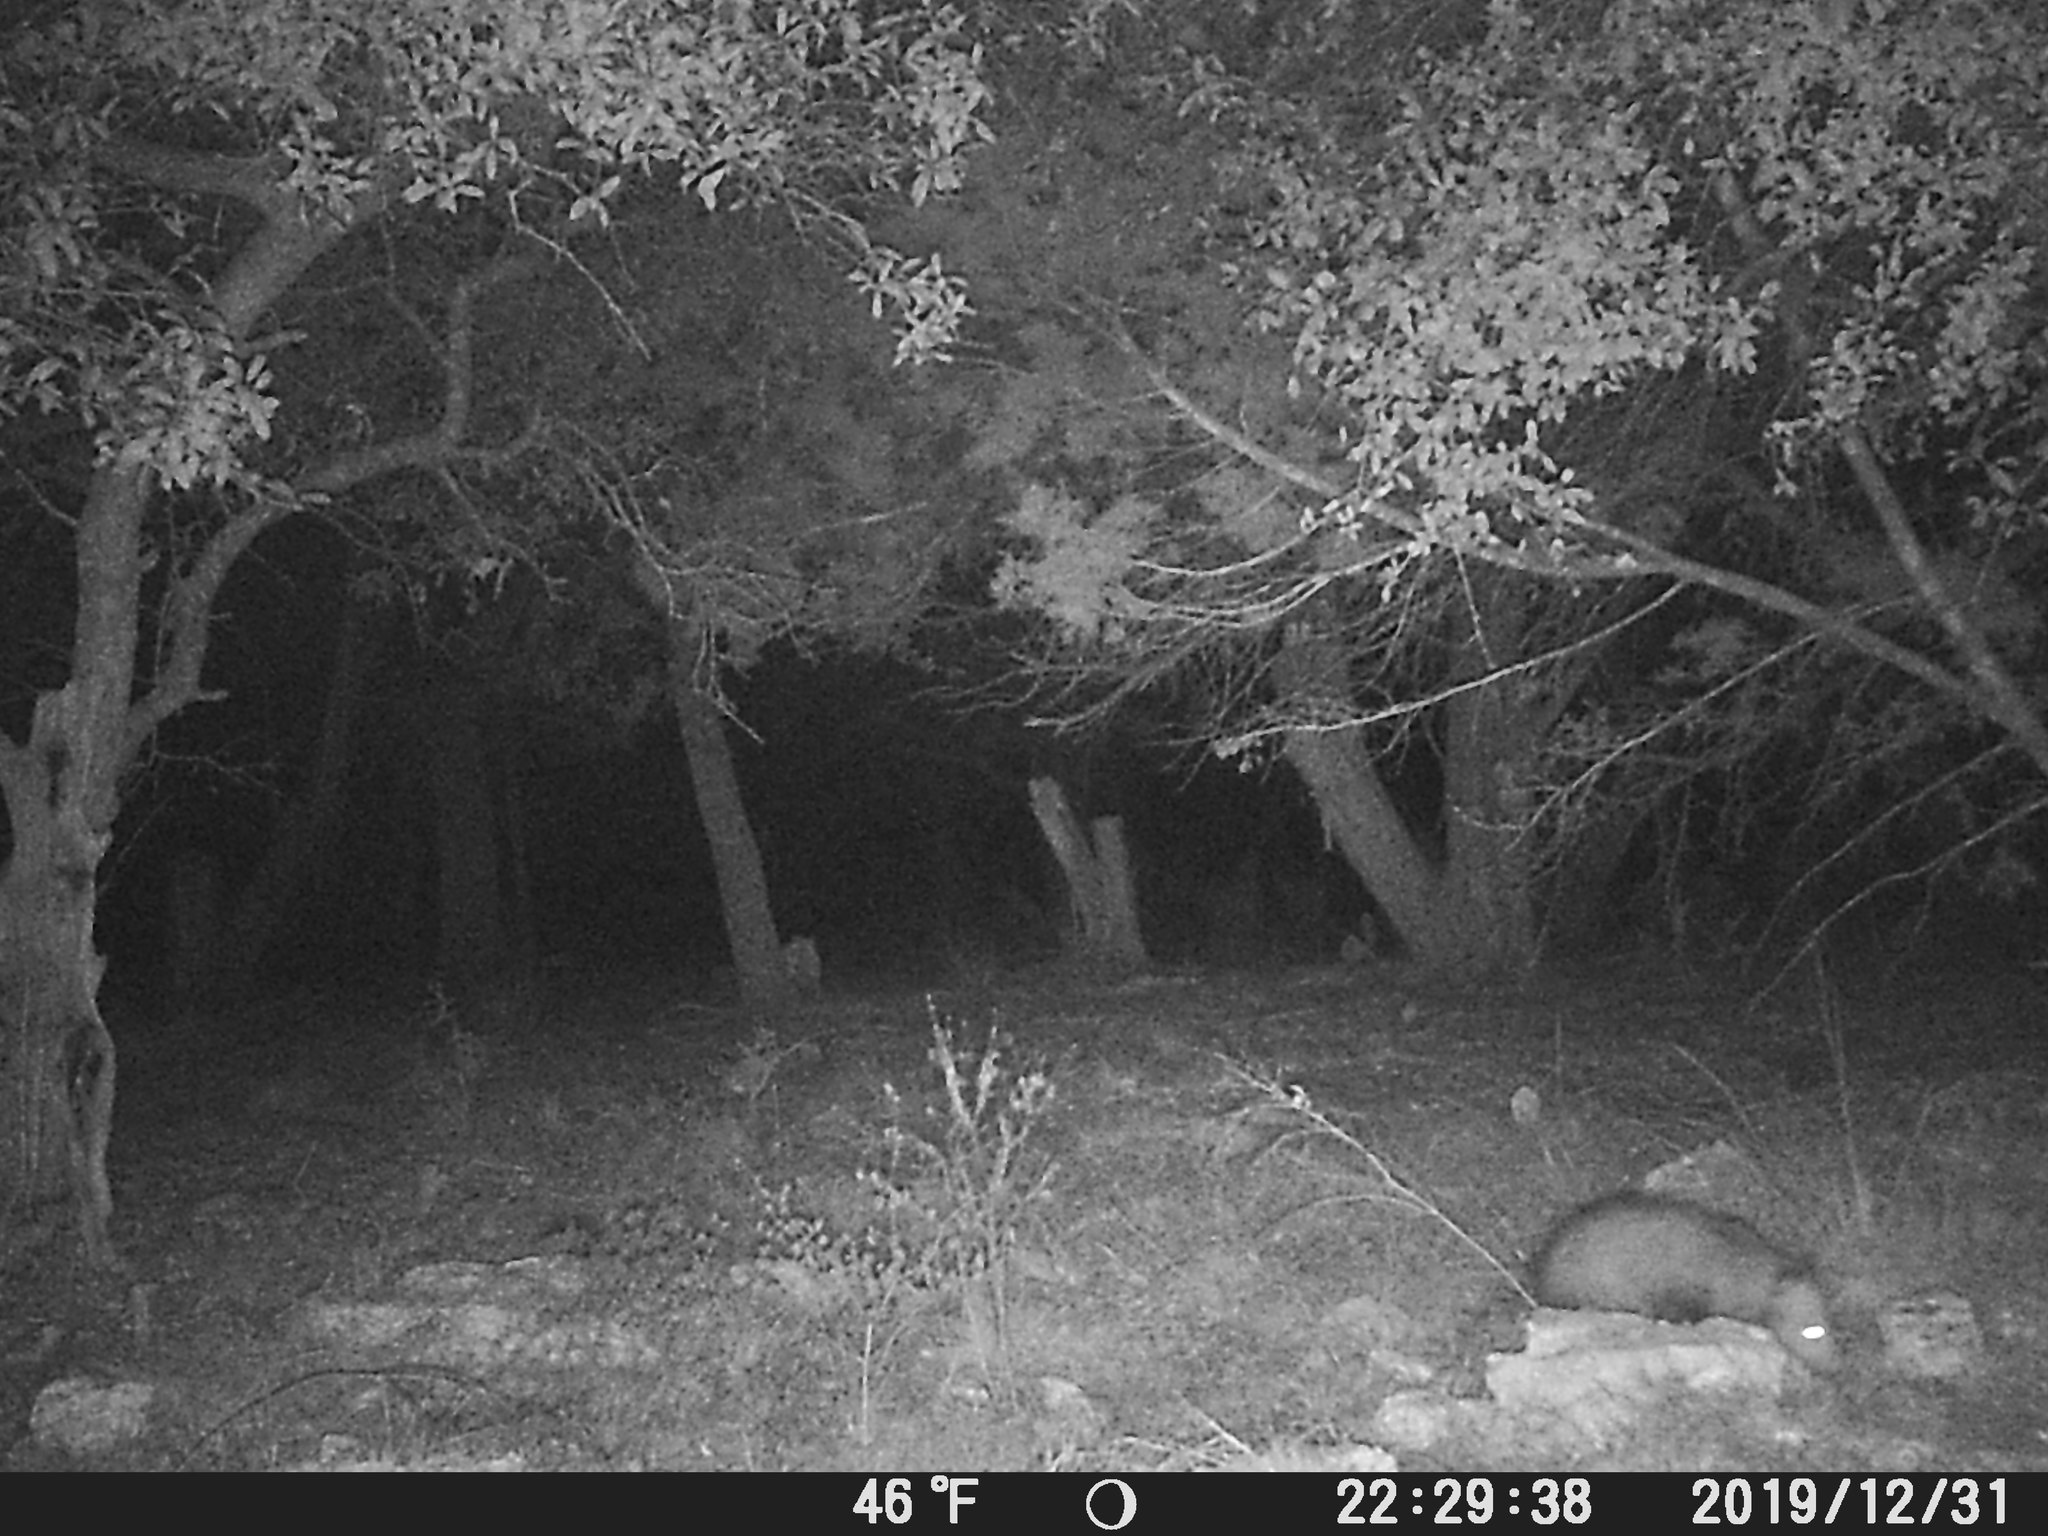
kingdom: Animalia
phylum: Chordata
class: Mammalia
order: Didelphimorphia
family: Didelphidae
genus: Didelphis
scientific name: Didelphis virginiana
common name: Virginia opossum
